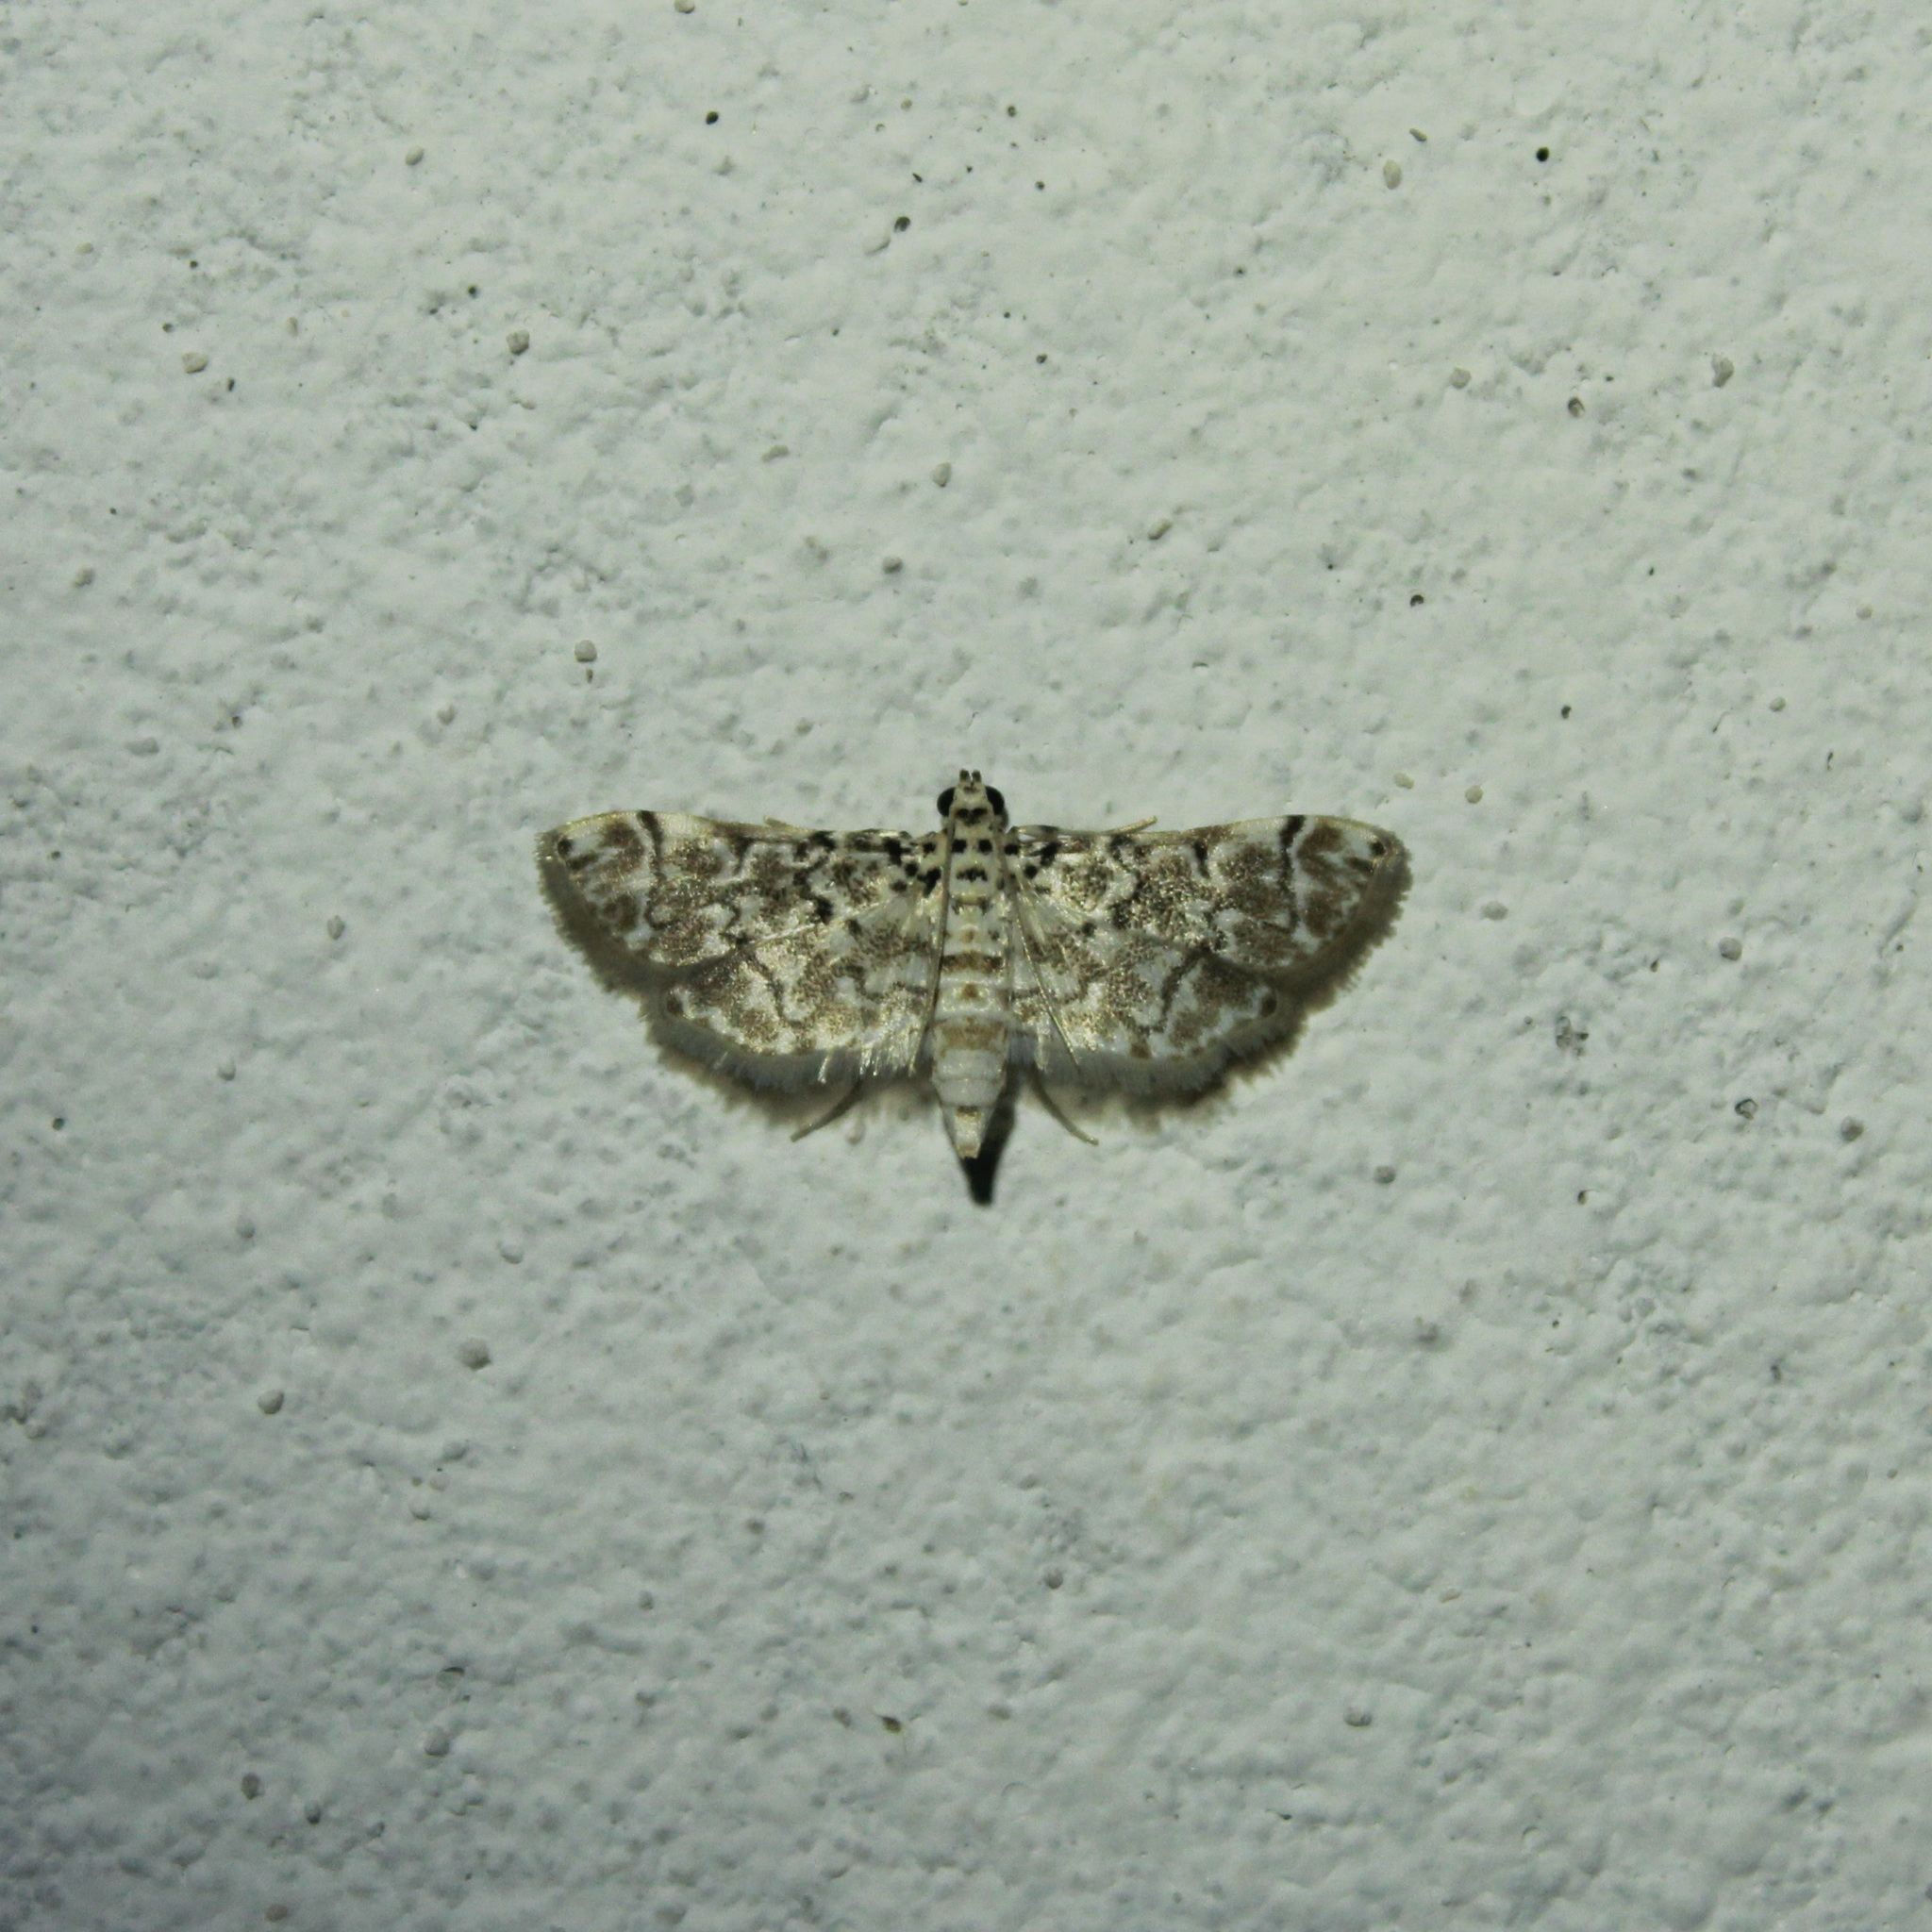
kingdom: Animalia
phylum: Arthropoda
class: Insecta
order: Lepidoptera
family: Crambidae
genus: Metoeca
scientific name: Metoeca foedalis
